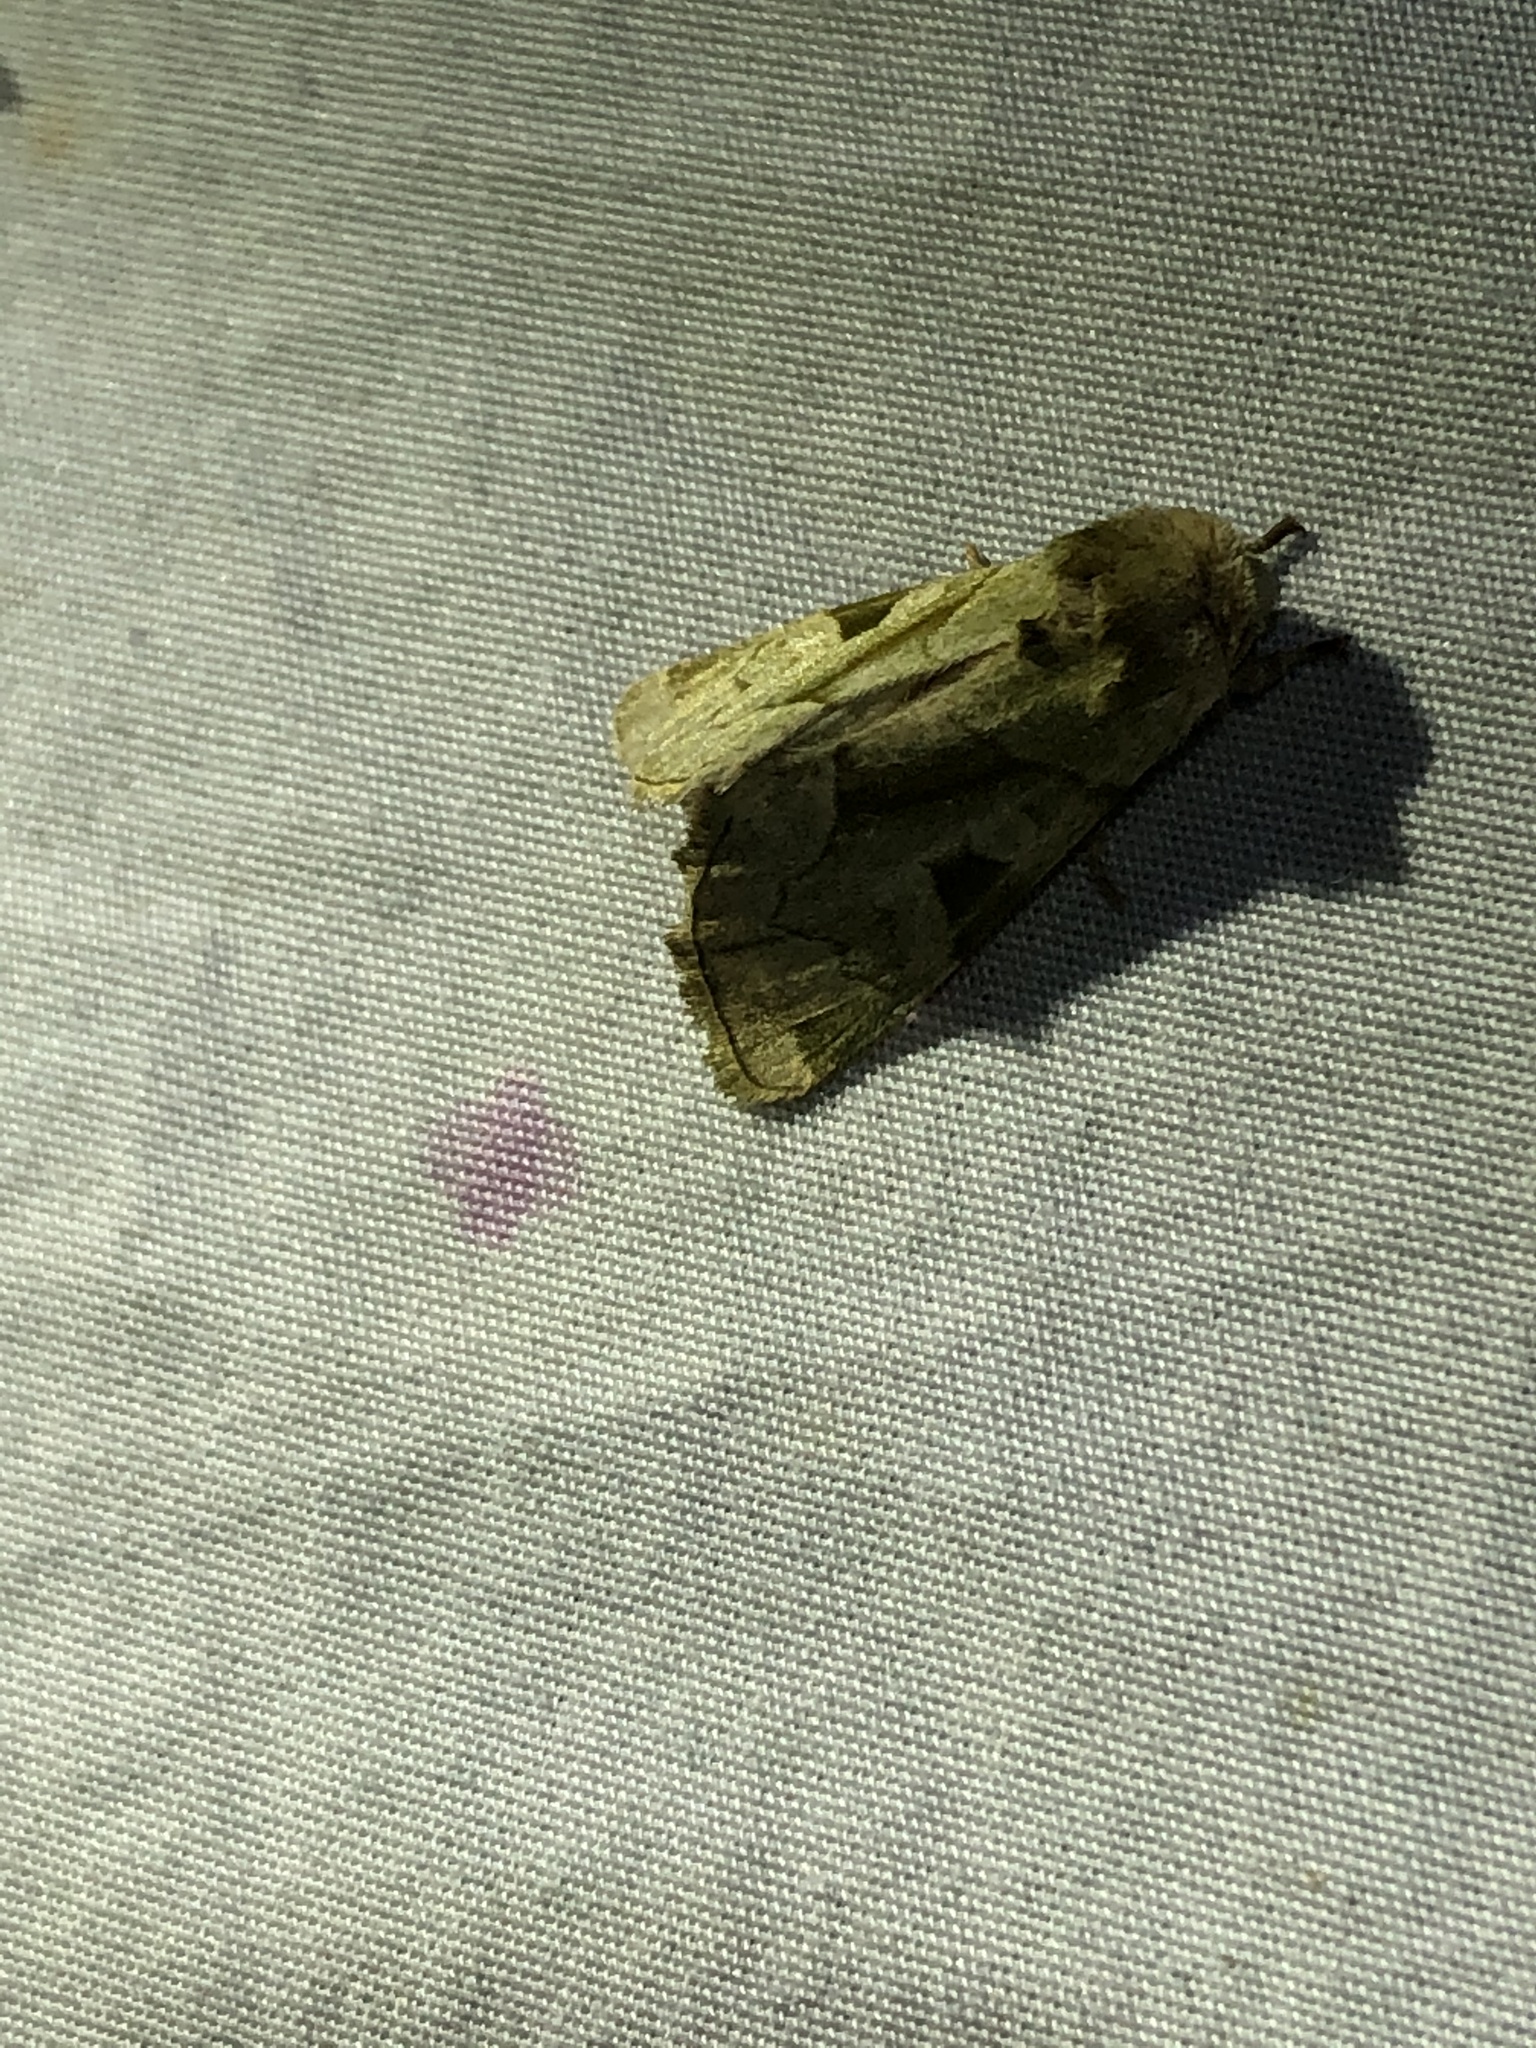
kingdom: Animalia
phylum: Arthropoda
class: Insecta
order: Lepidoptera
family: Noctuidae
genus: Oslaria
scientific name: Oslaria viridifera
